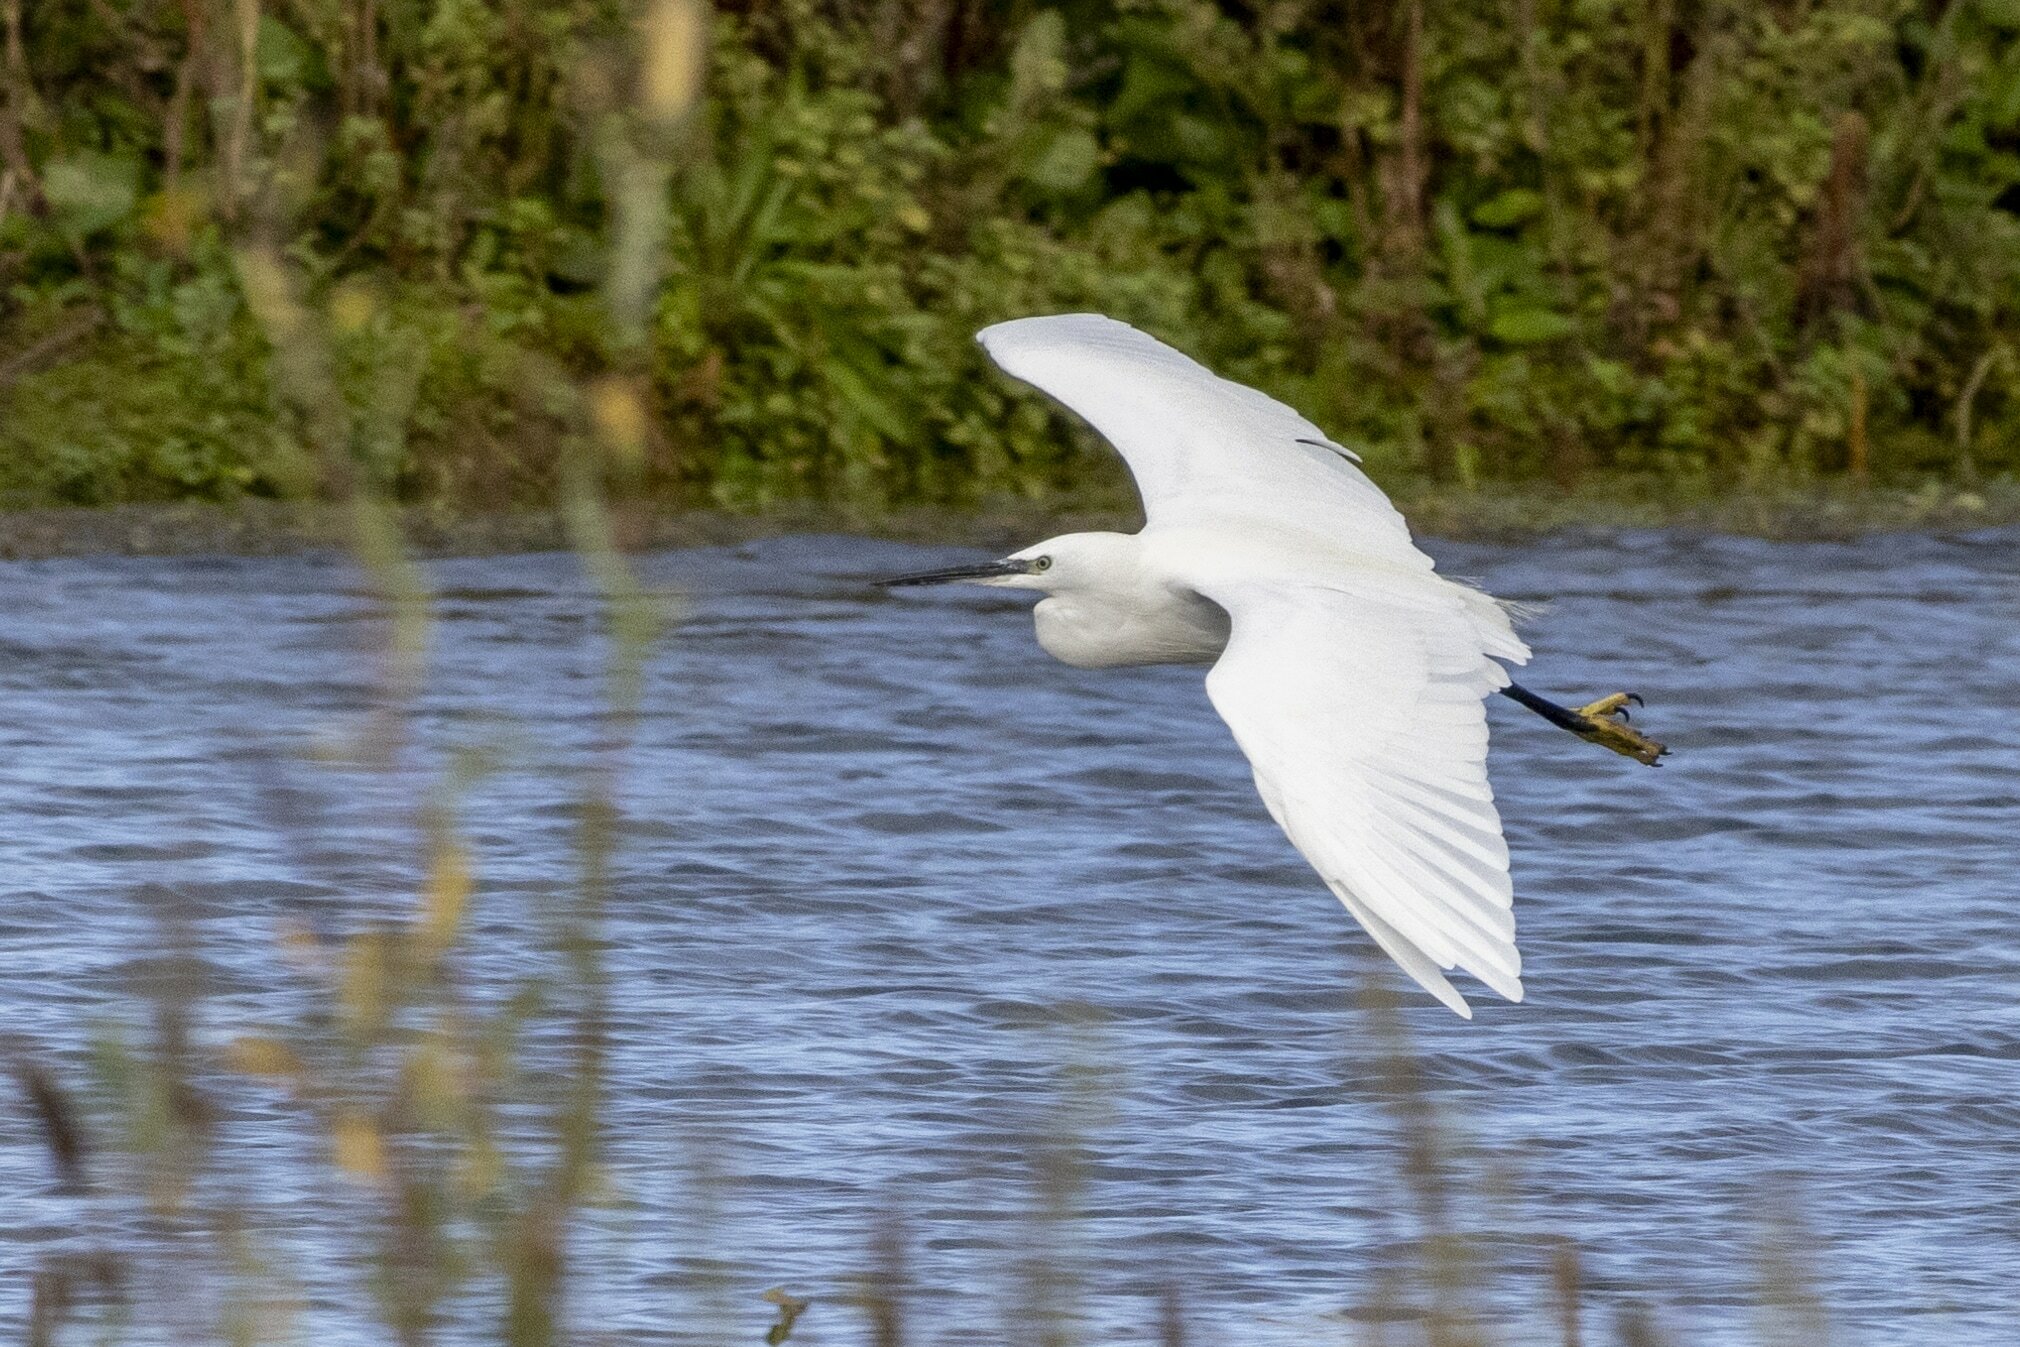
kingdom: Animalia
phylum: Chordata
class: Aves
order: Pelecaniformes
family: Ardeidae
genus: Egretta
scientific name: Egretta garzetta
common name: Little egret
